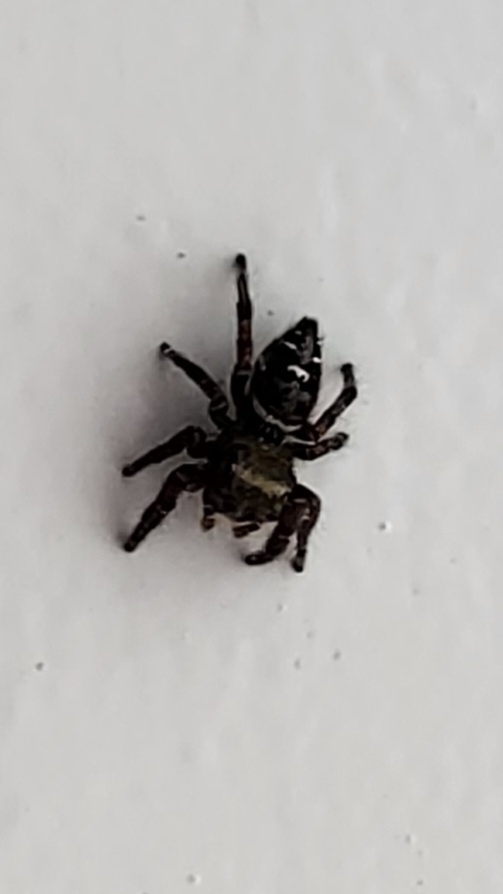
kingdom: Animalia
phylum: Arthropoda
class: Arachnida
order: Araneae
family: Salticidae
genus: Phidippus
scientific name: Phidippus audax
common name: Bold jumper
